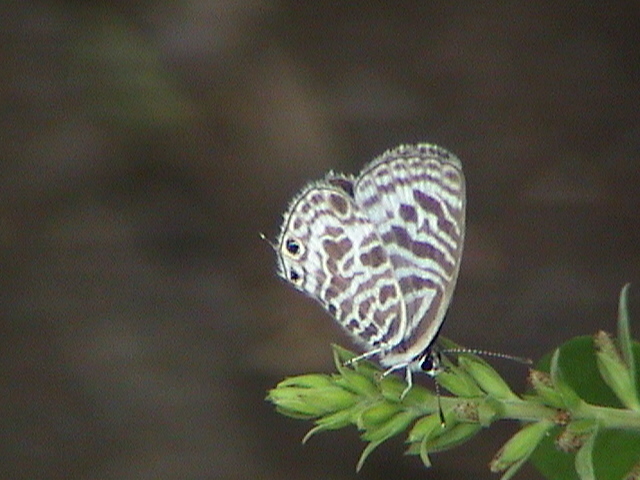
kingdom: Animalia
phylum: Arthropoda
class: Insecta
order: Lepidoptera
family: Lycaenidae
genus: Leptotes
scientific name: Leptotes plinius
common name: Zebra blue
